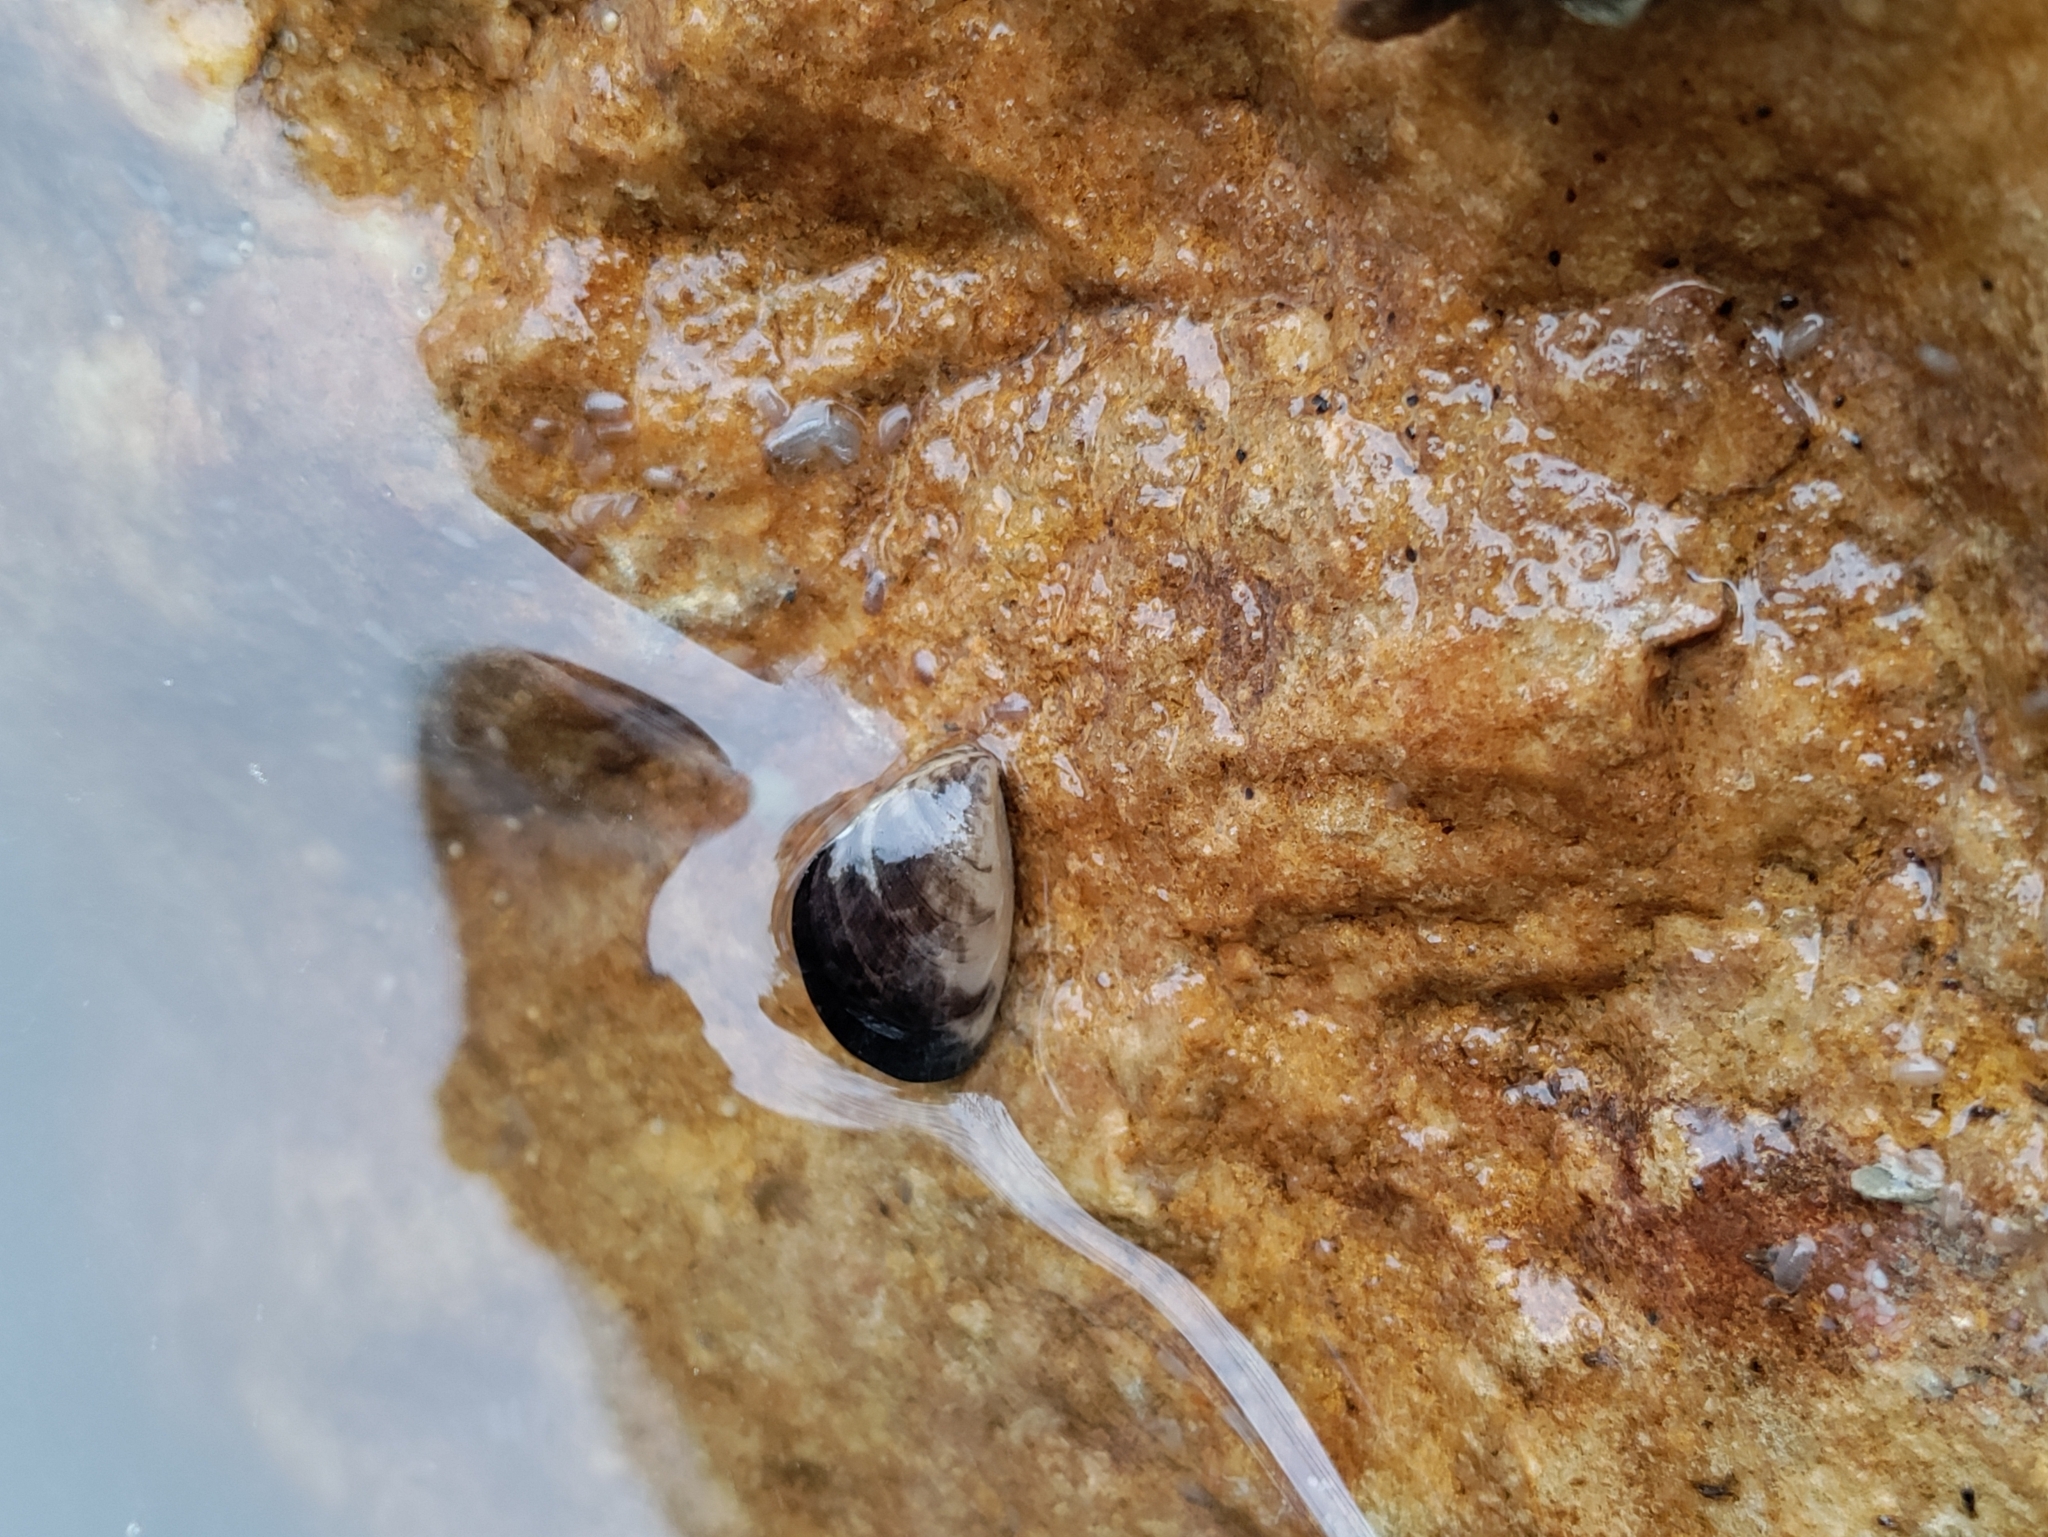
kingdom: Animalia
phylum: Mollusca
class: Bivalvia
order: Myida
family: Dreissenidae
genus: Dreissena
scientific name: Dreissena bugensis
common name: Quagga mussel
